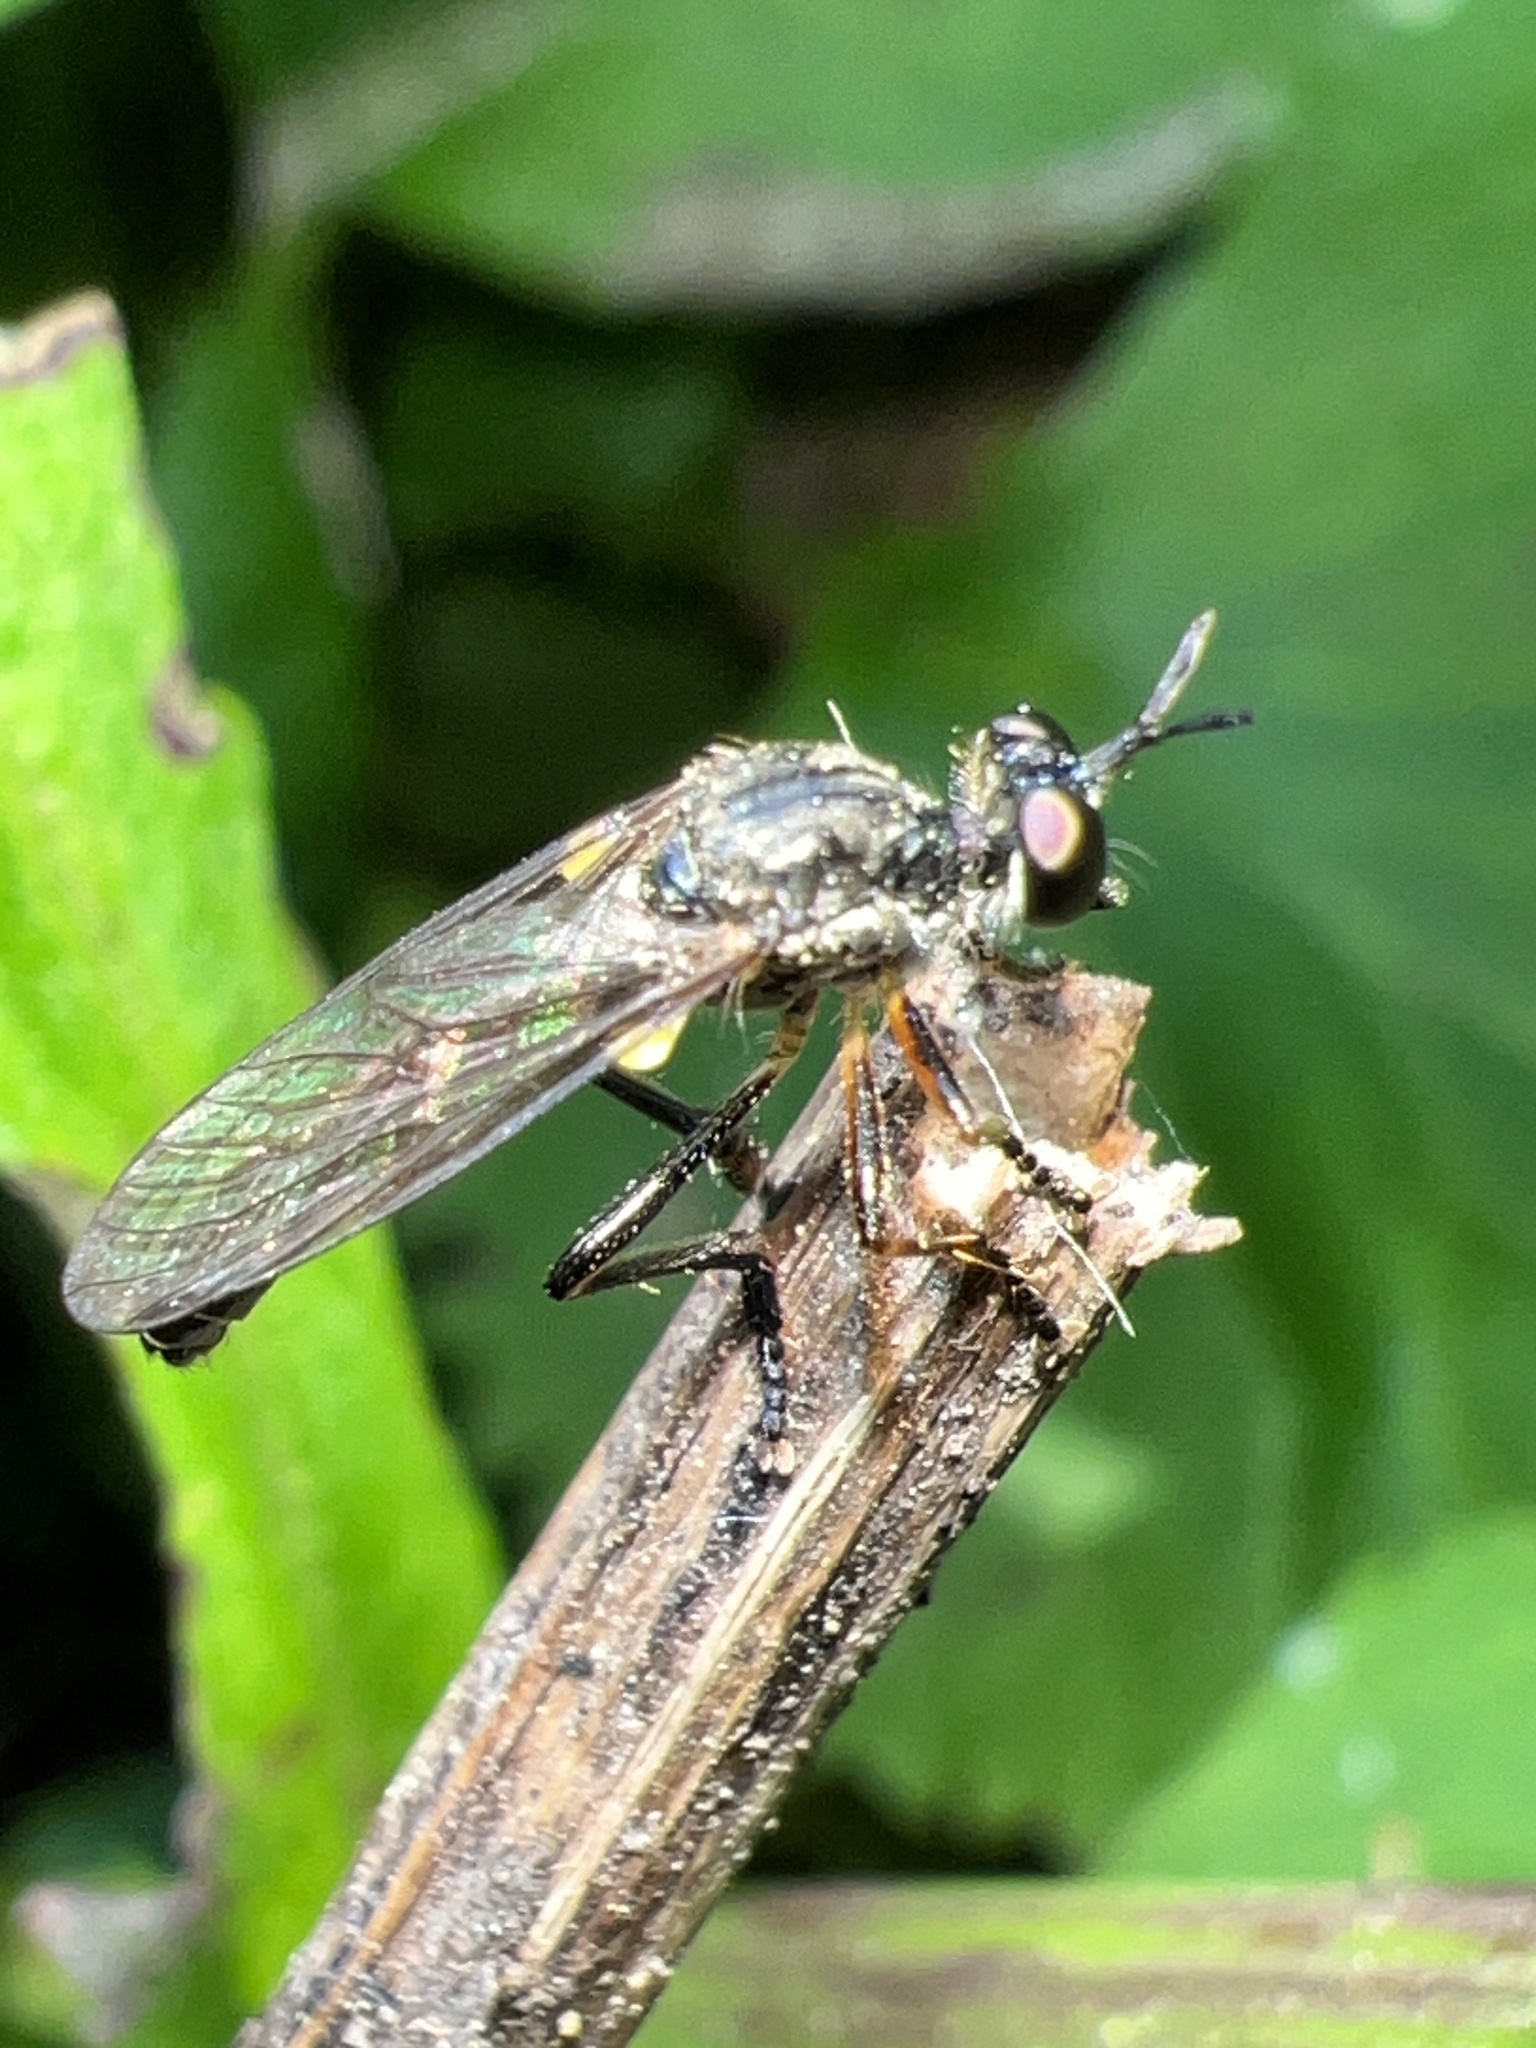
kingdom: Animalia
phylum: Arthropoda
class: Insecta
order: Diptera
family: Asilidae
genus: Dioctria
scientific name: Dioctria hyalipennis
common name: Stripe-legged robberfly
